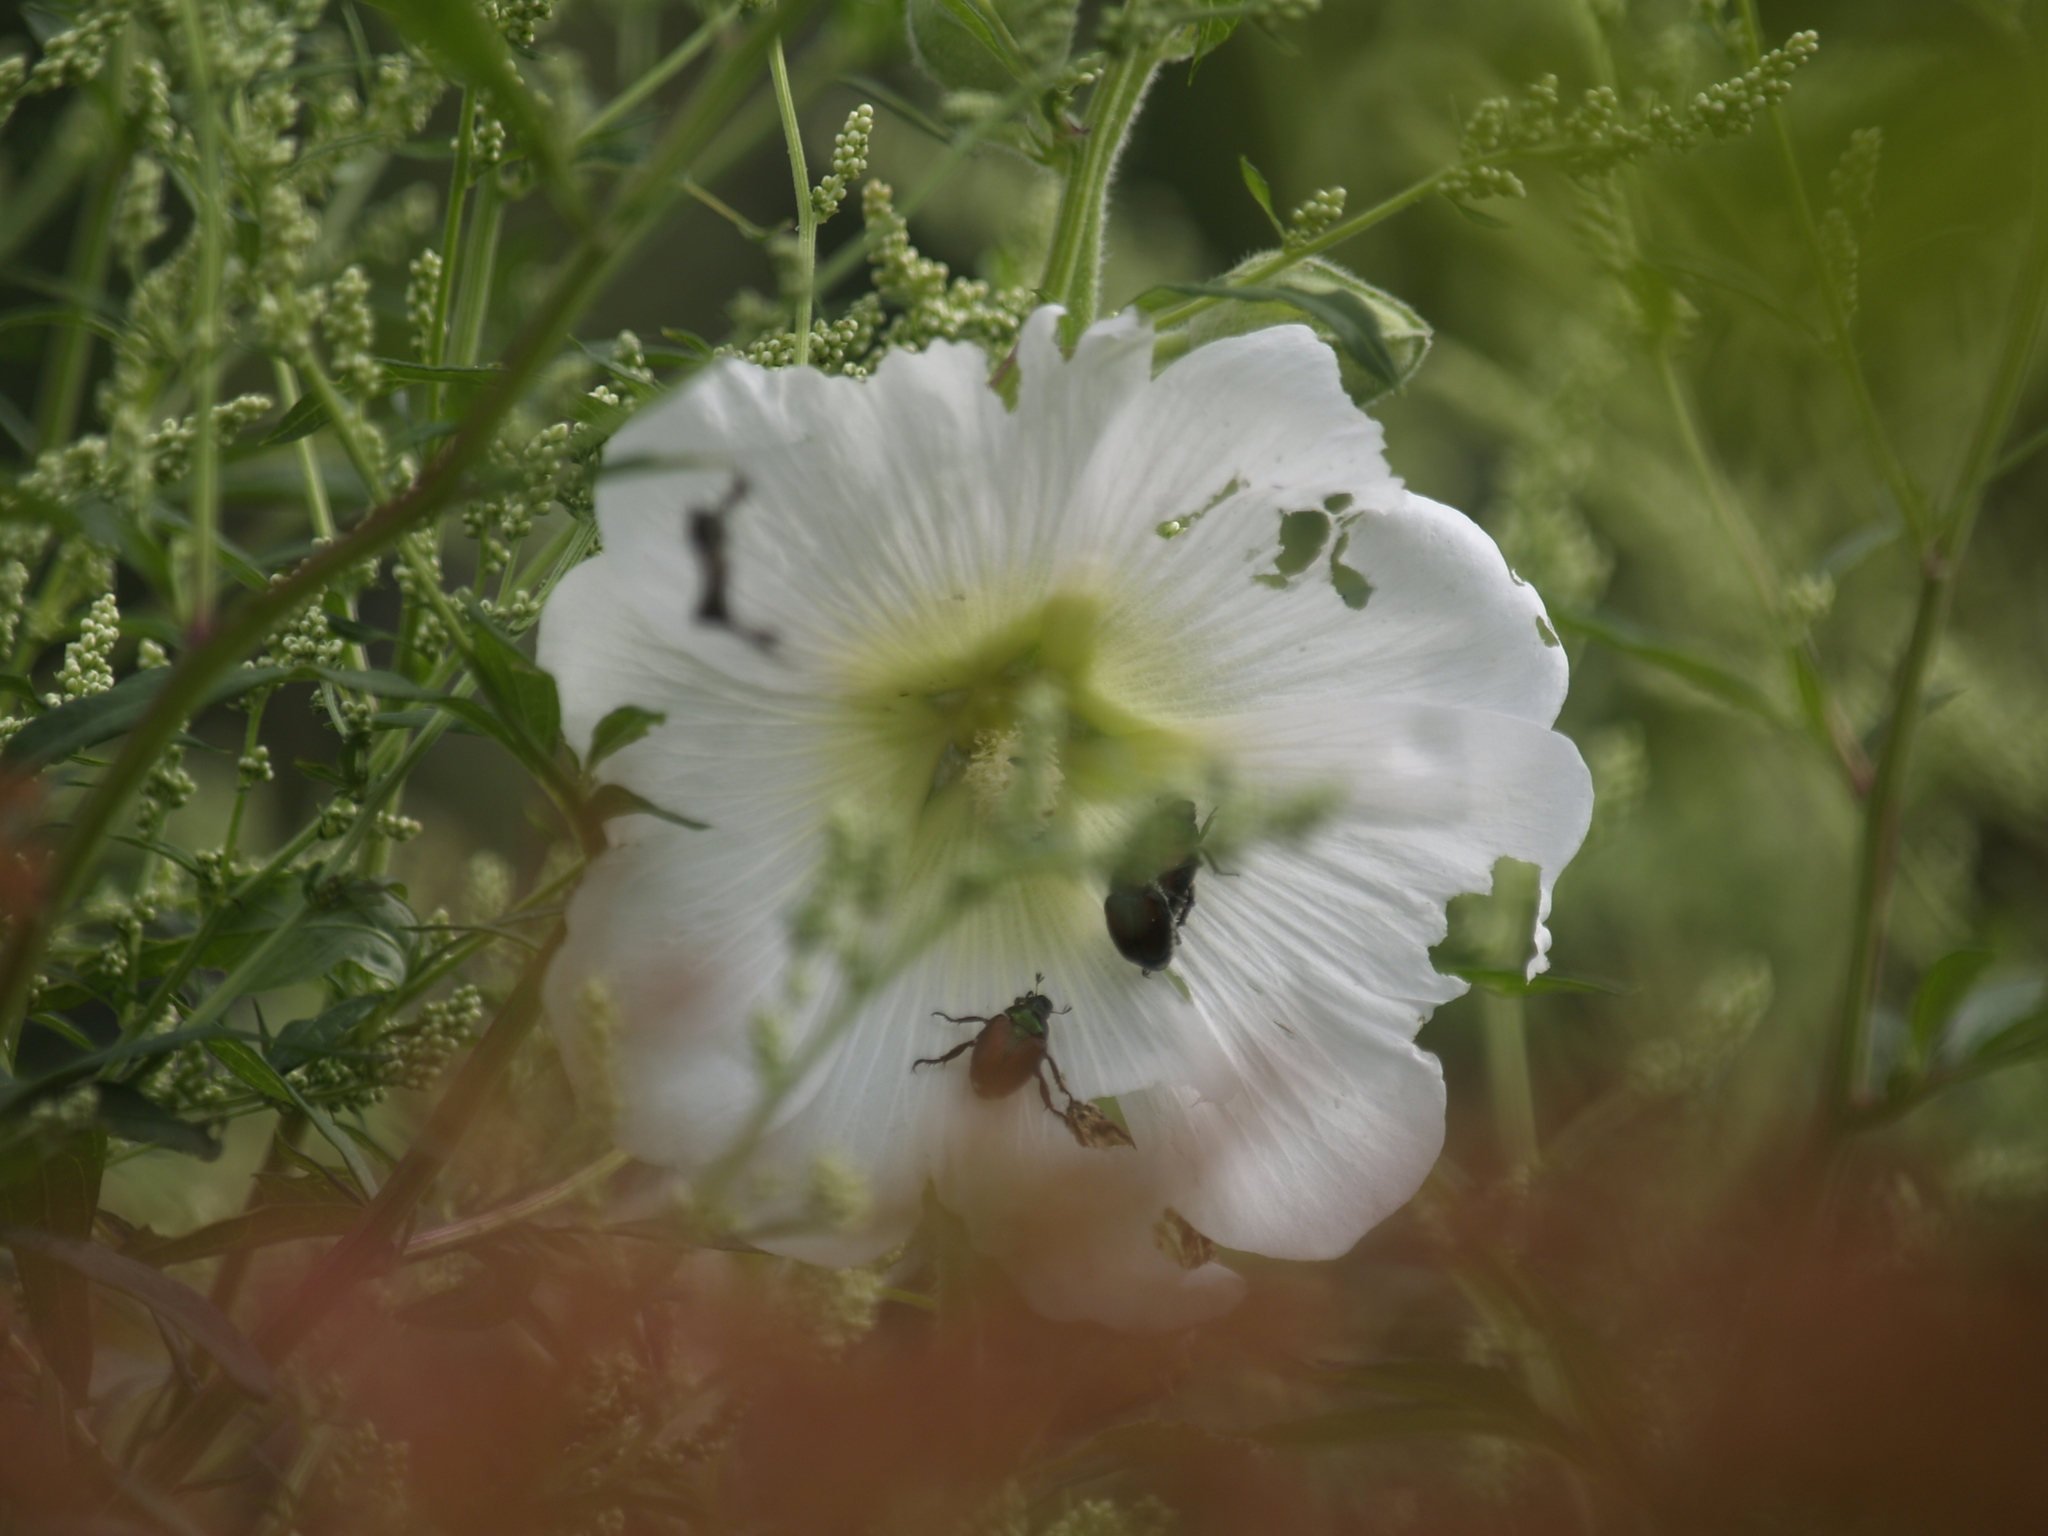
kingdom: Animalia
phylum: Arthropoda
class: Insecta
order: Coleoptera
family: Scarabaeidae
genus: Popillia
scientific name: Popillia japonica
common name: Japanese beetle
